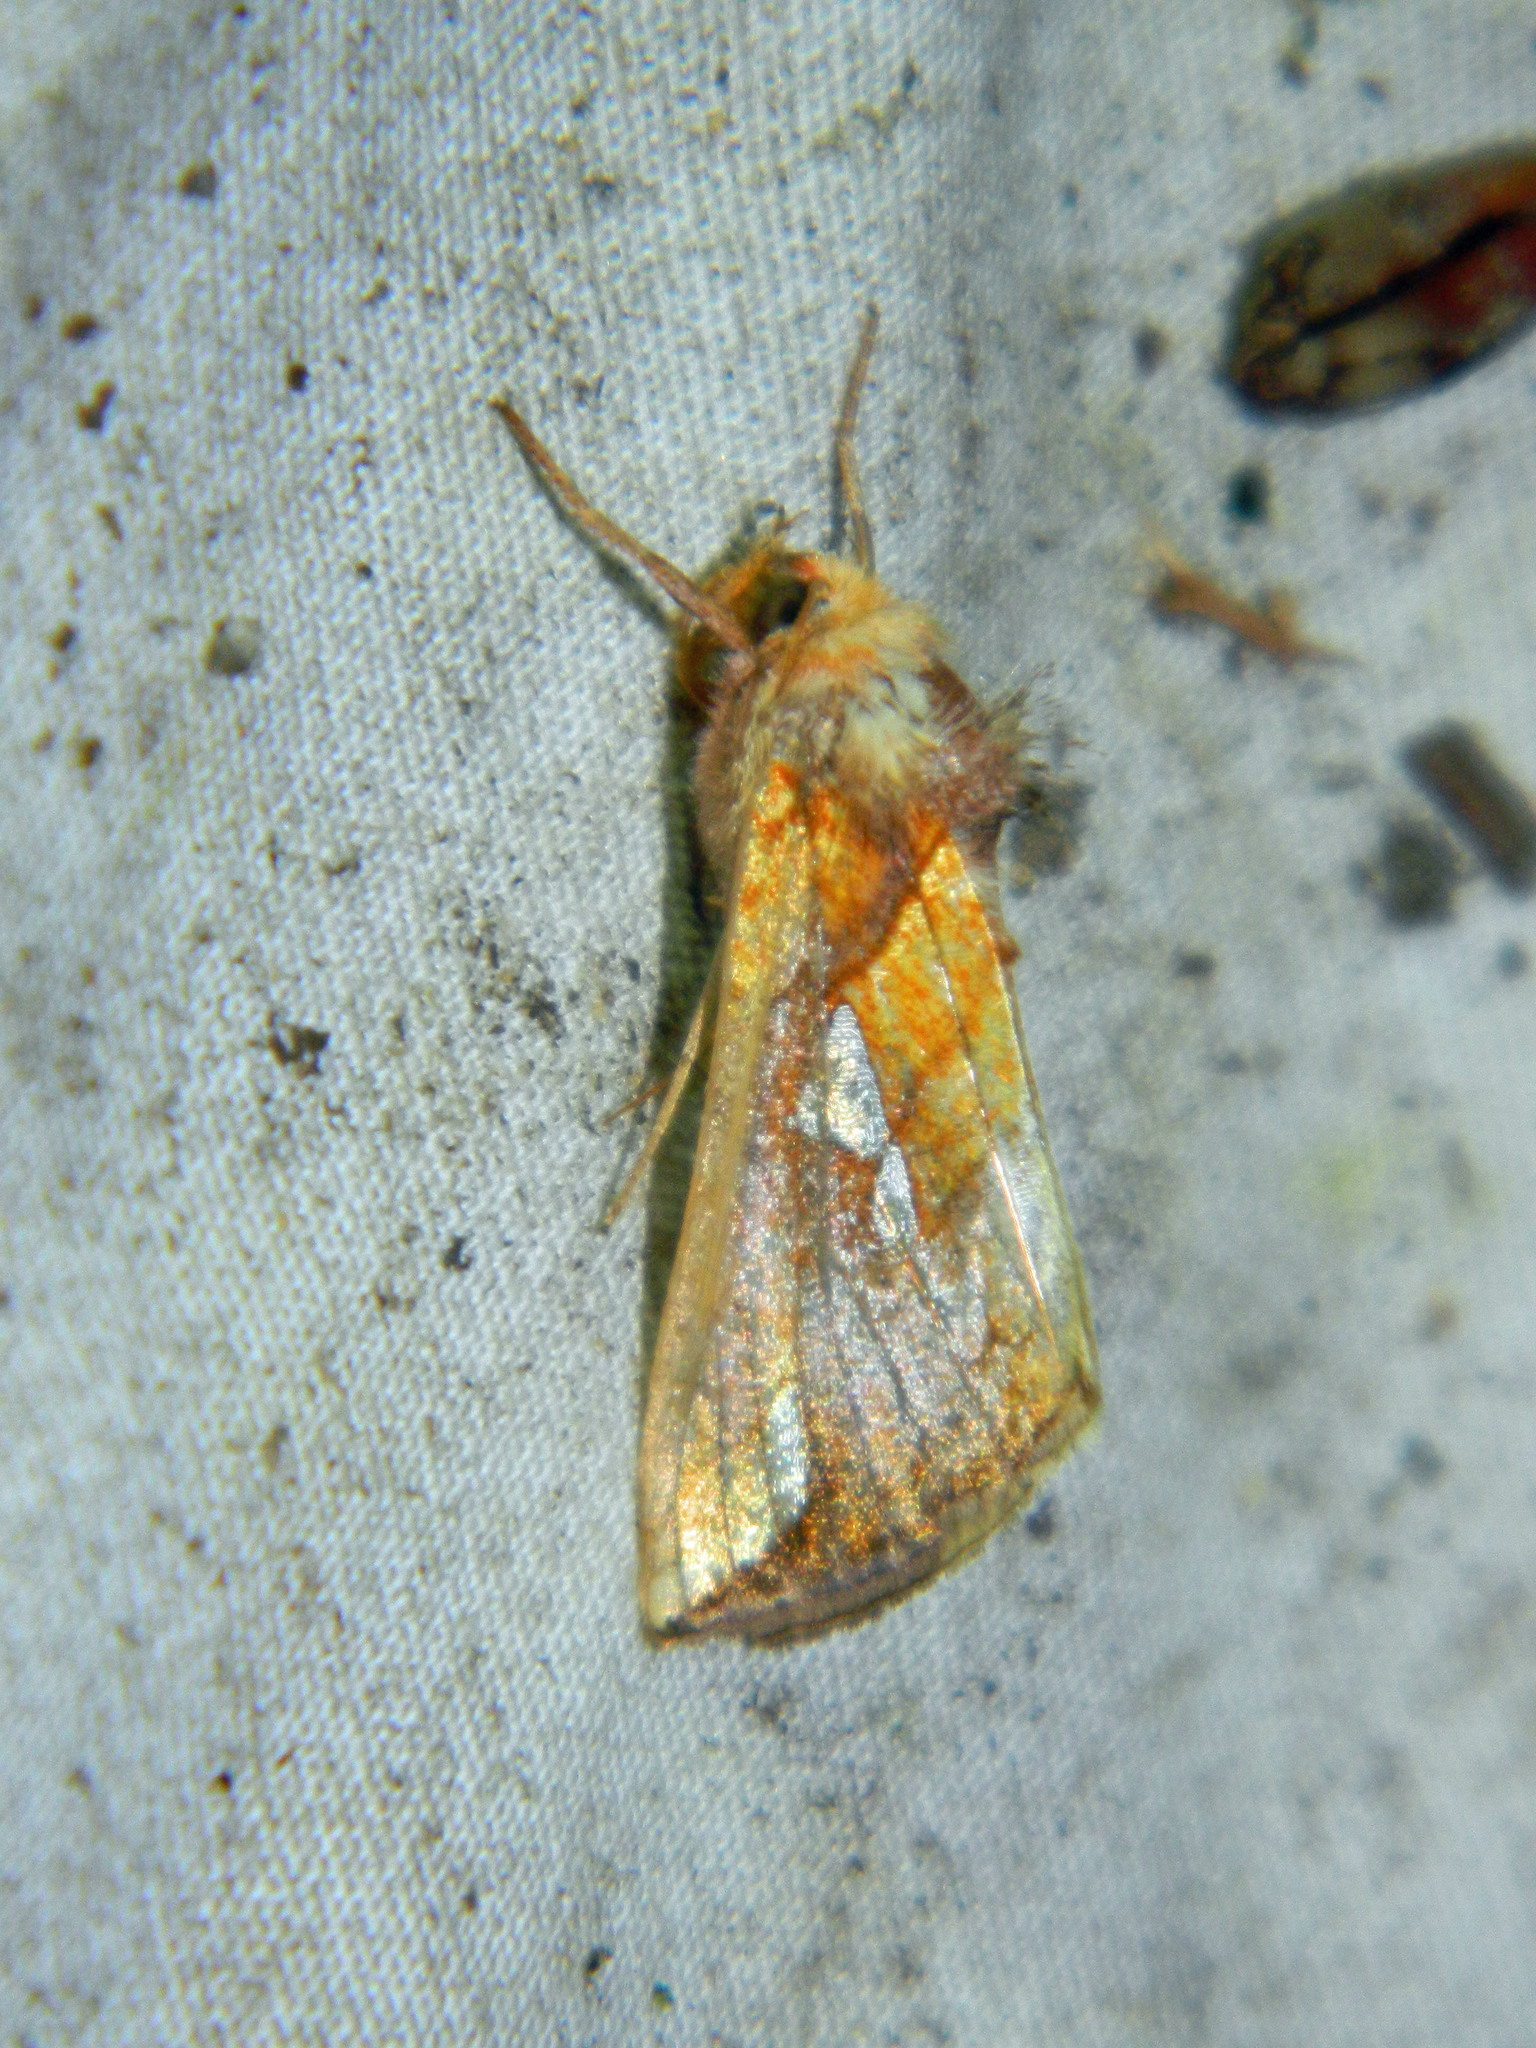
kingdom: Animalia
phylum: Arthropoda
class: Insecta
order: Lepidoptera
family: Noctuidae
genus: Plusia
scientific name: Plusia putnami
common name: Lempke's gold spot
